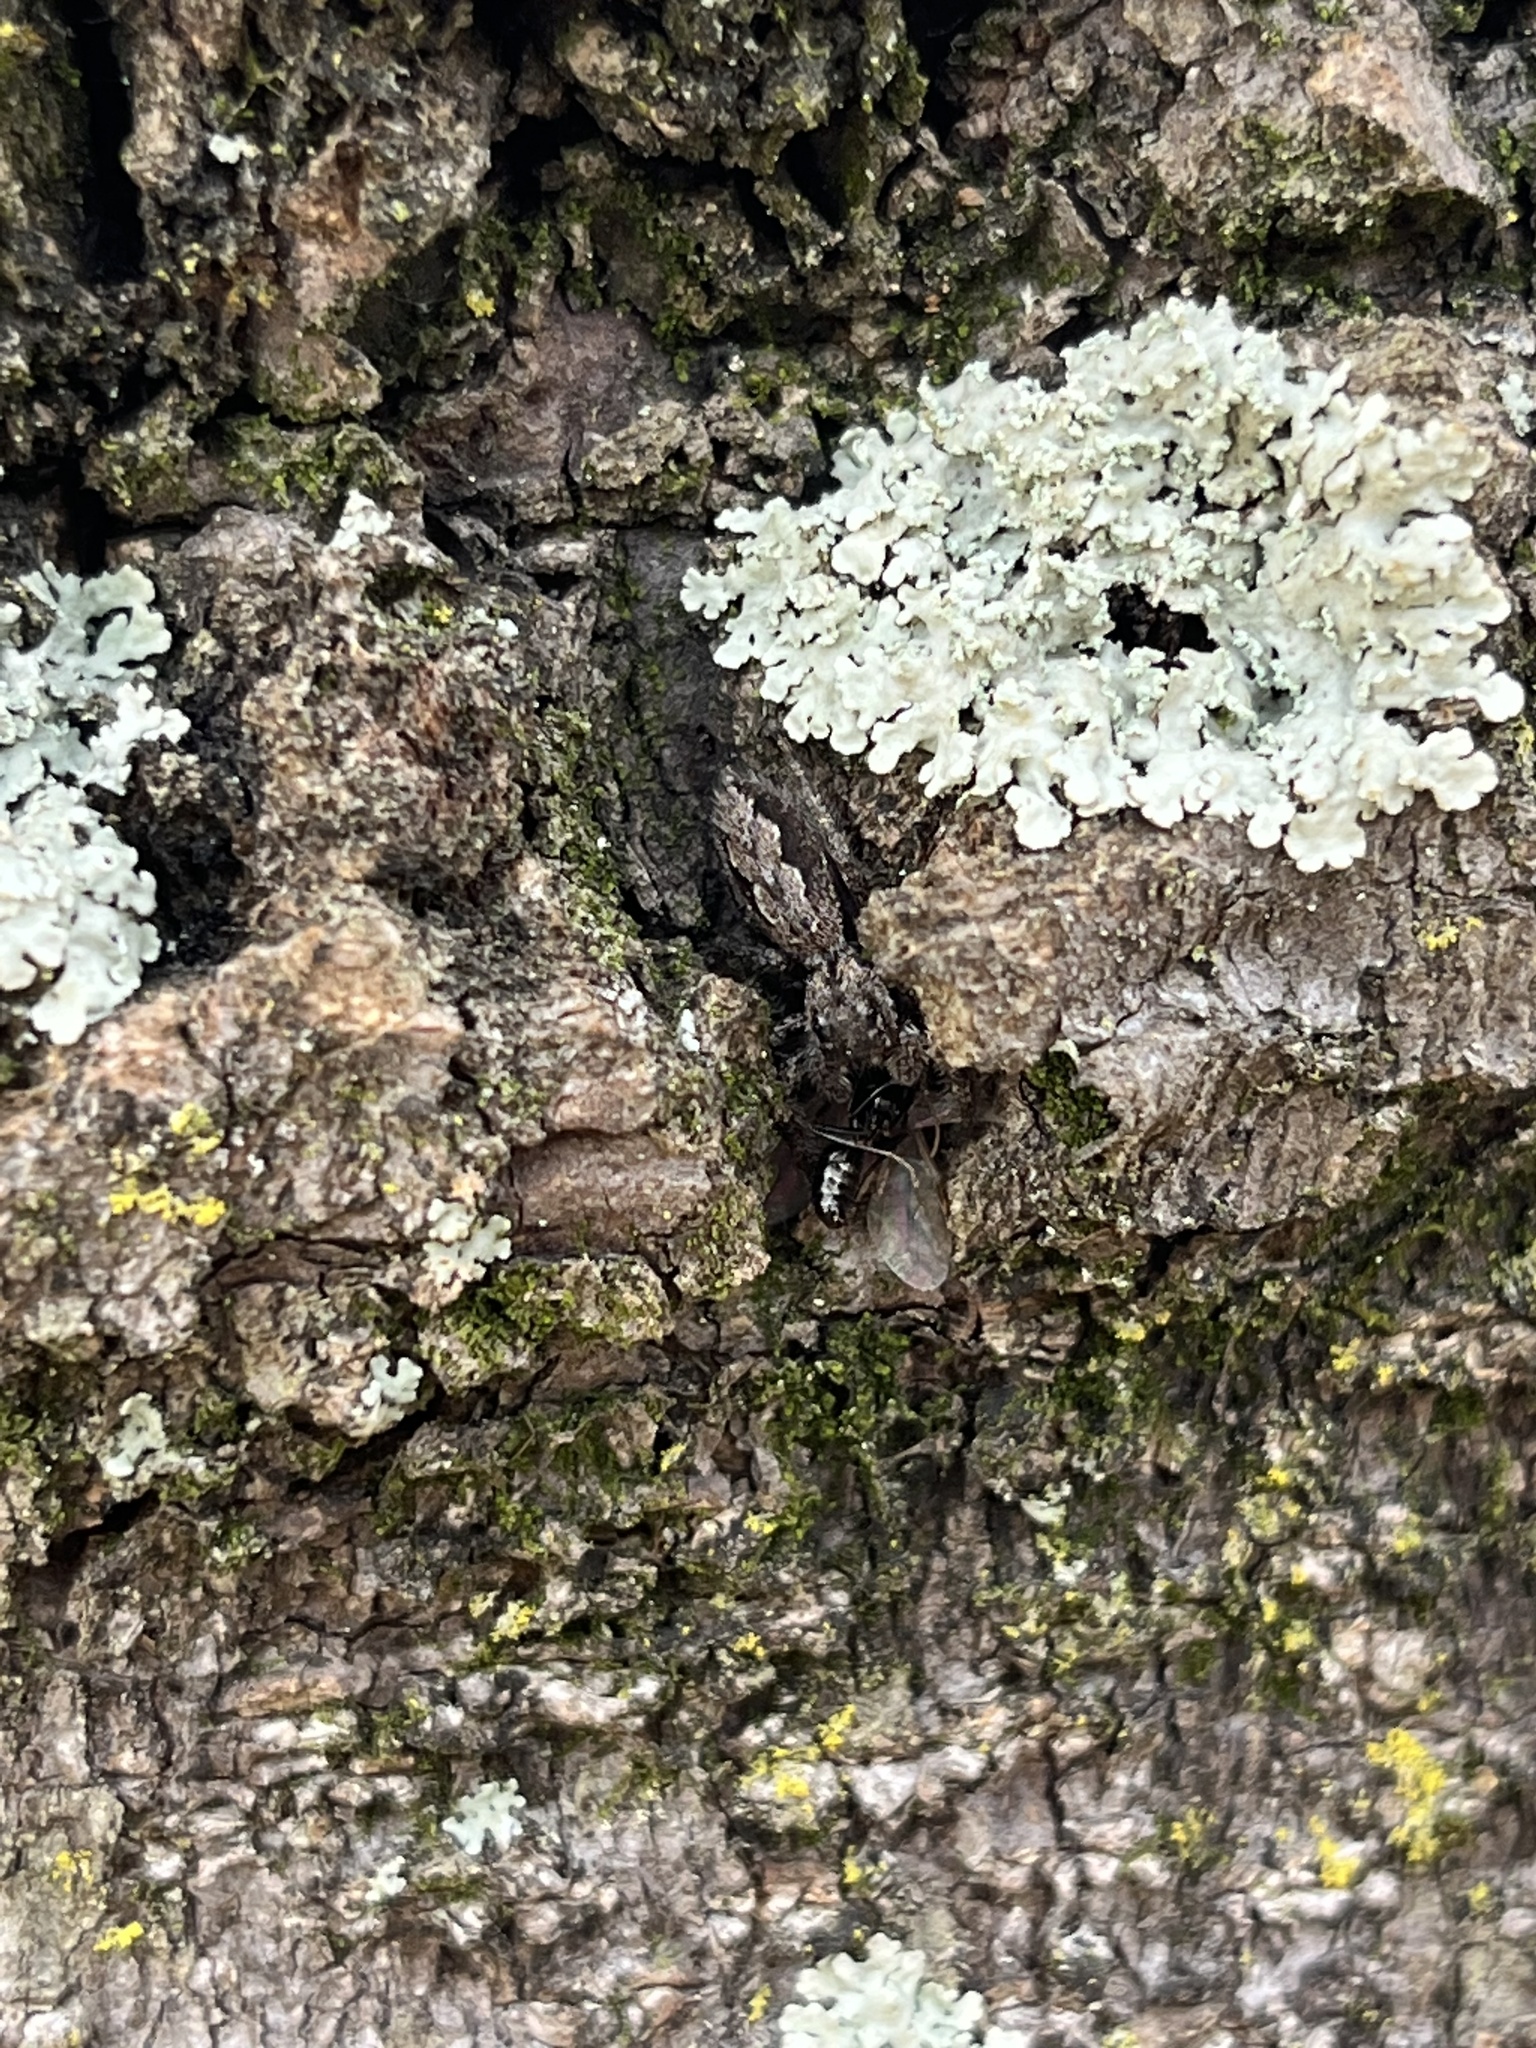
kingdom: Animalia
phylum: Arthropoda
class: Arachnida
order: Araneae
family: Salticidae
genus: Platycryptus
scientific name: Platycryptus undatus
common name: Tan jumping spider
